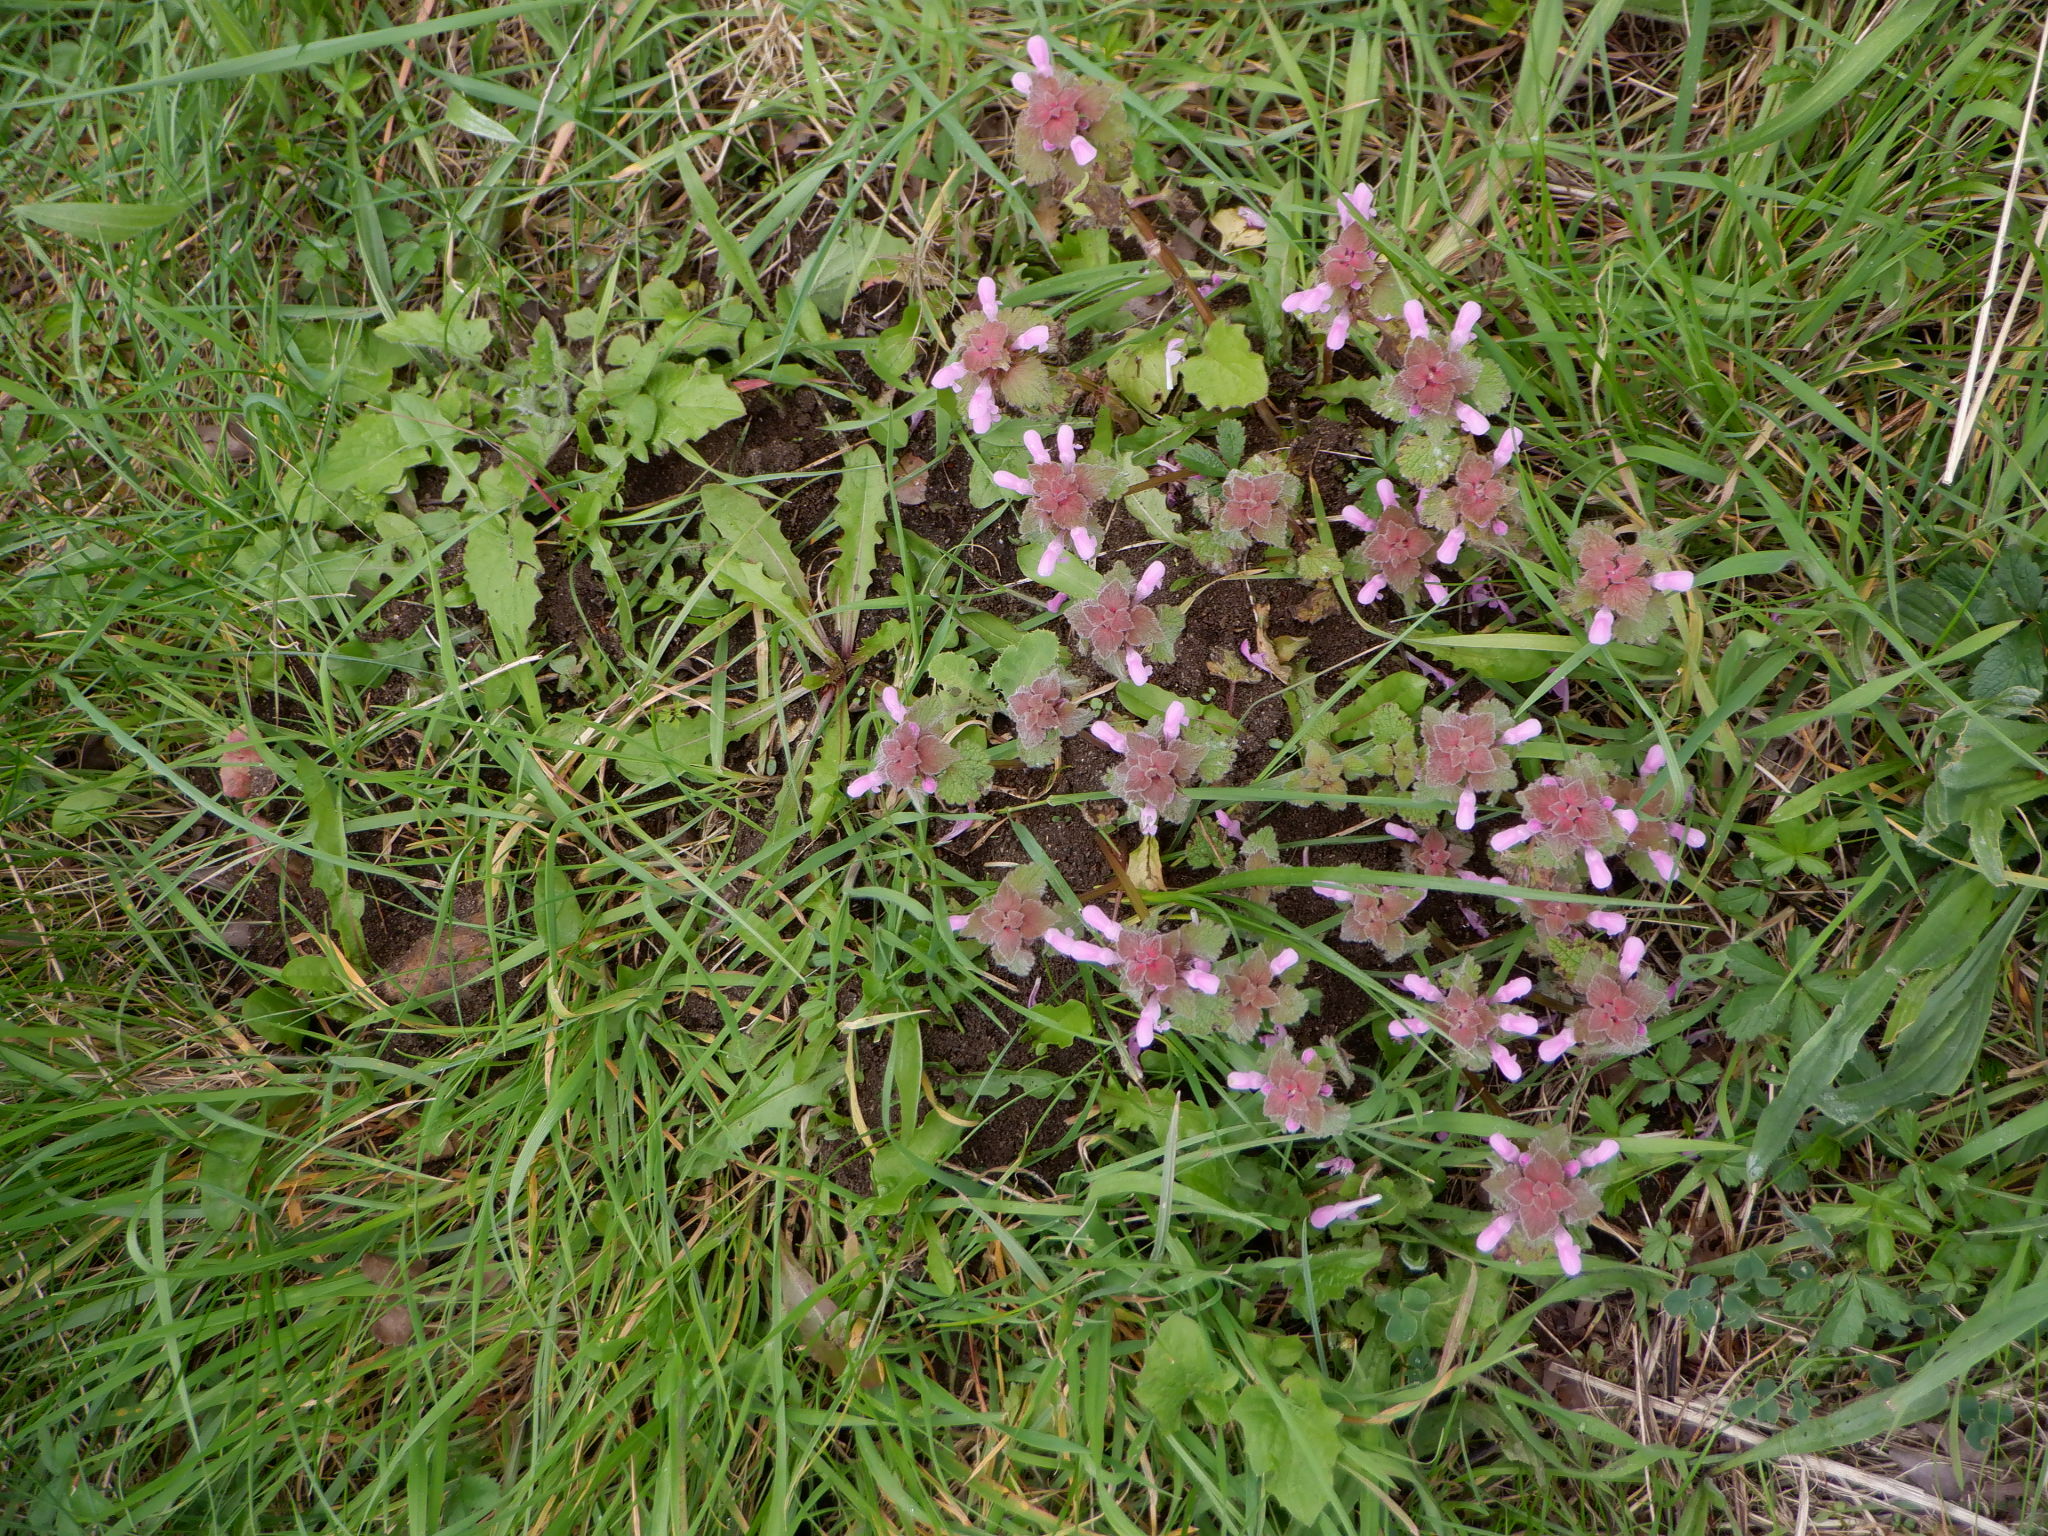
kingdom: Plantae
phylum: Tracheophyta
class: Magnoliopsida
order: Lamiales
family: Lamiaceae
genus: Lamium
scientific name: Lamium purpureum
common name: Red dead-nettle
